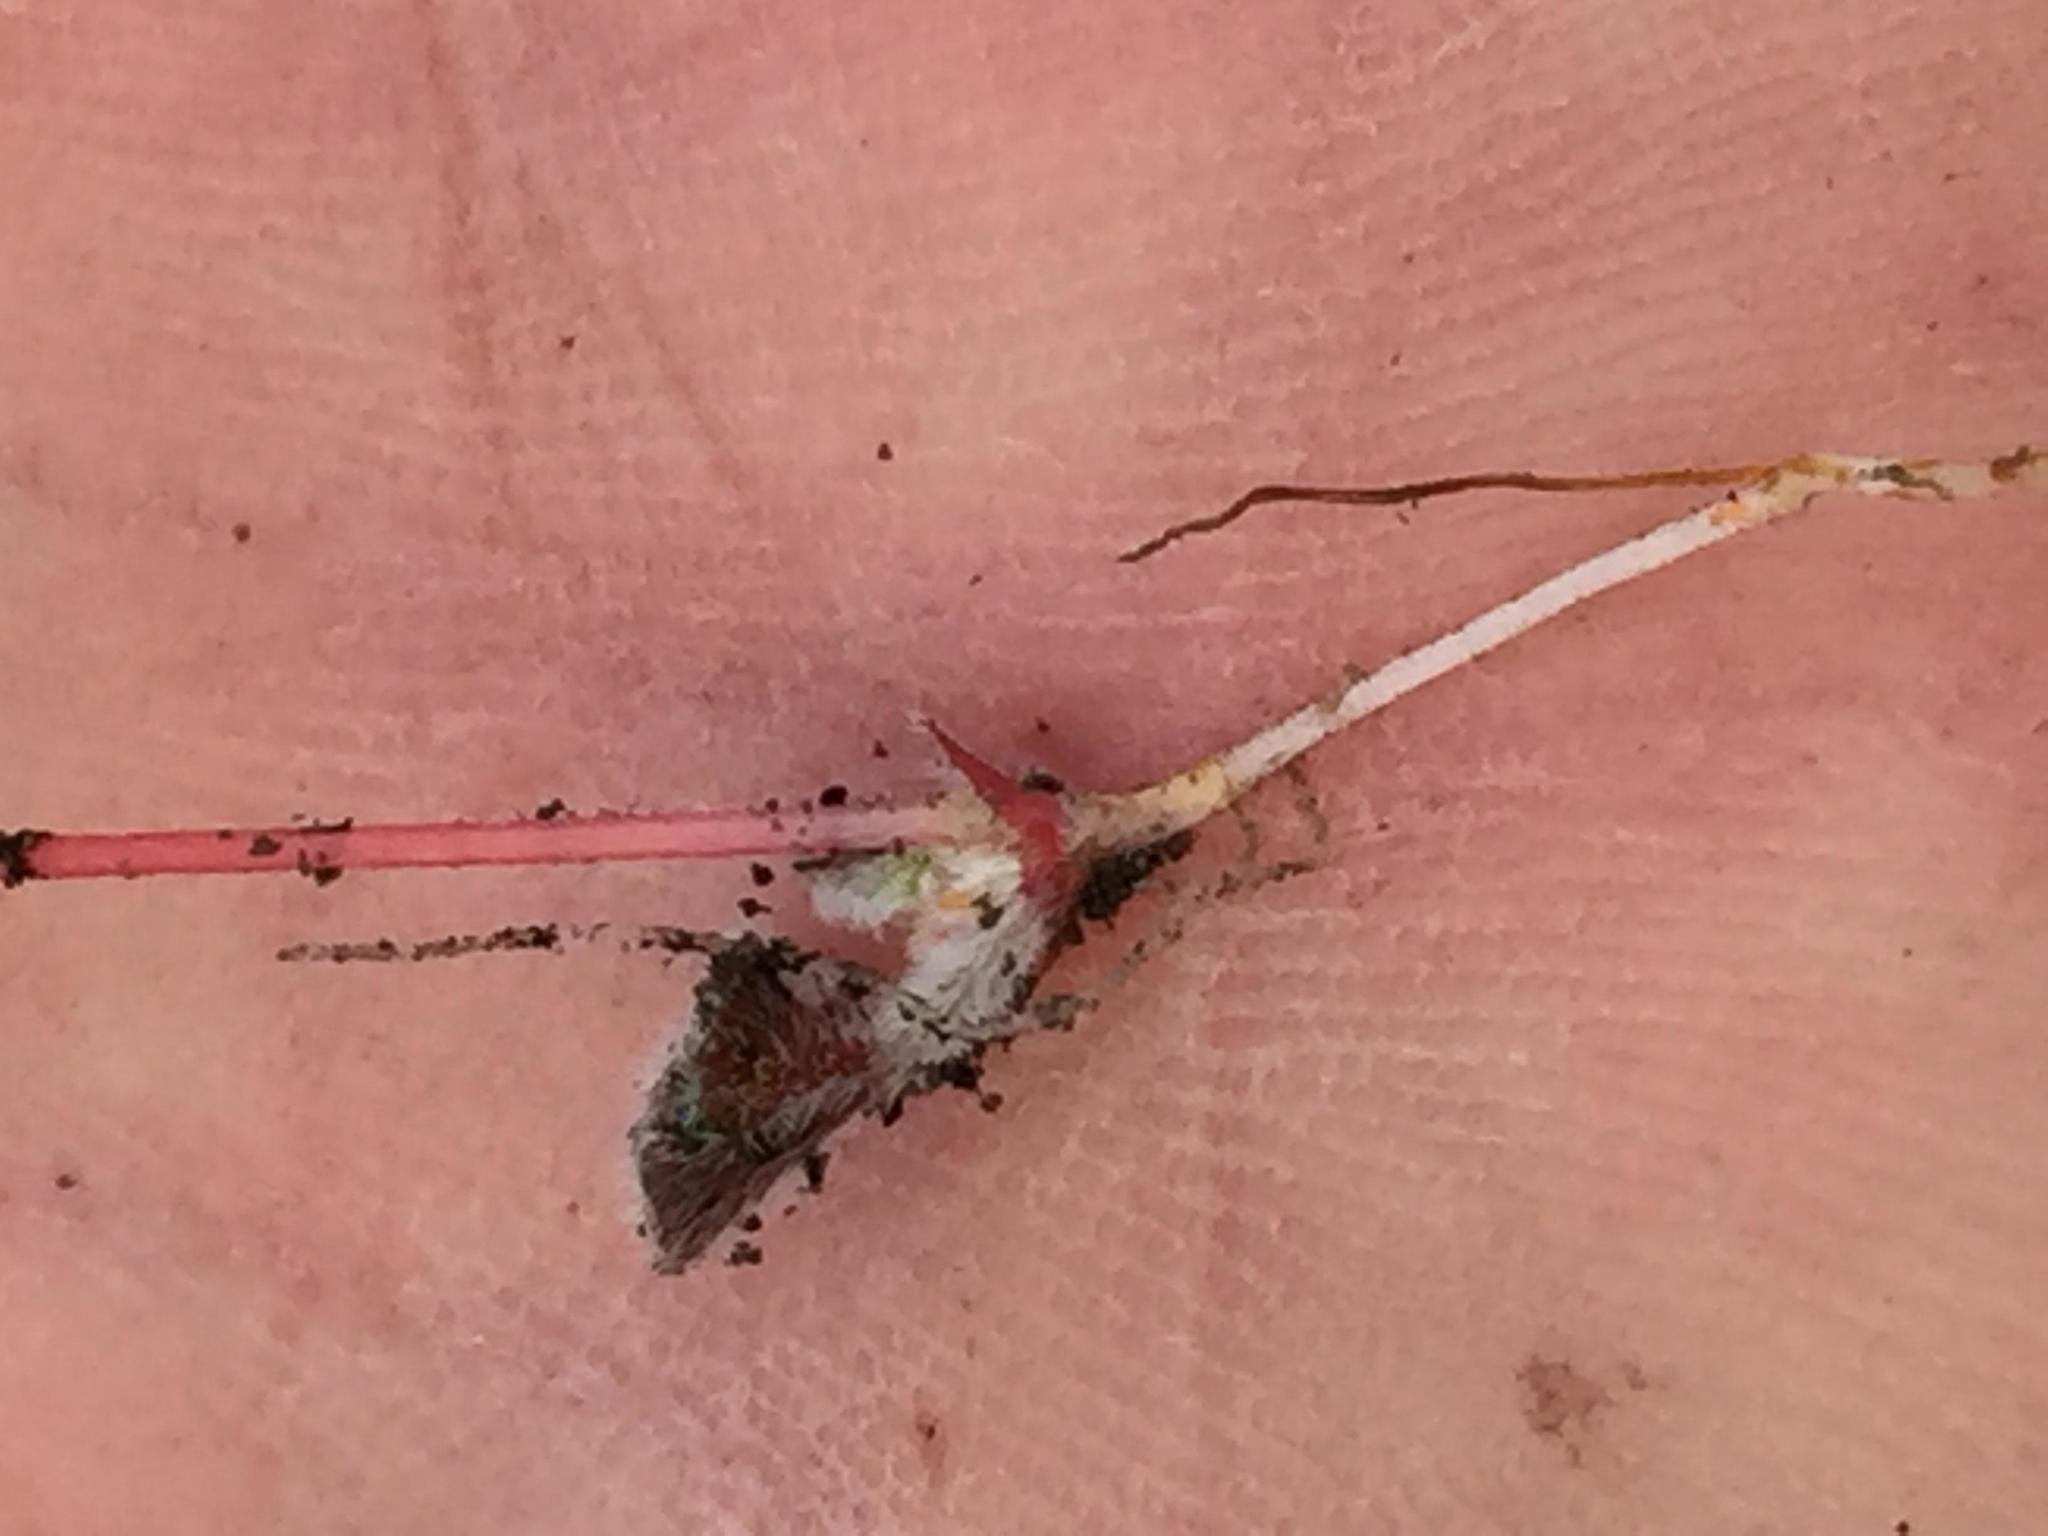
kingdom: Plantae
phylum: Tracheophyta
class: Magnoliopsida
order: Oxalidales
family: Oxalidaceae
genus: Oxalis
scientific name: Oxalis imbricata
